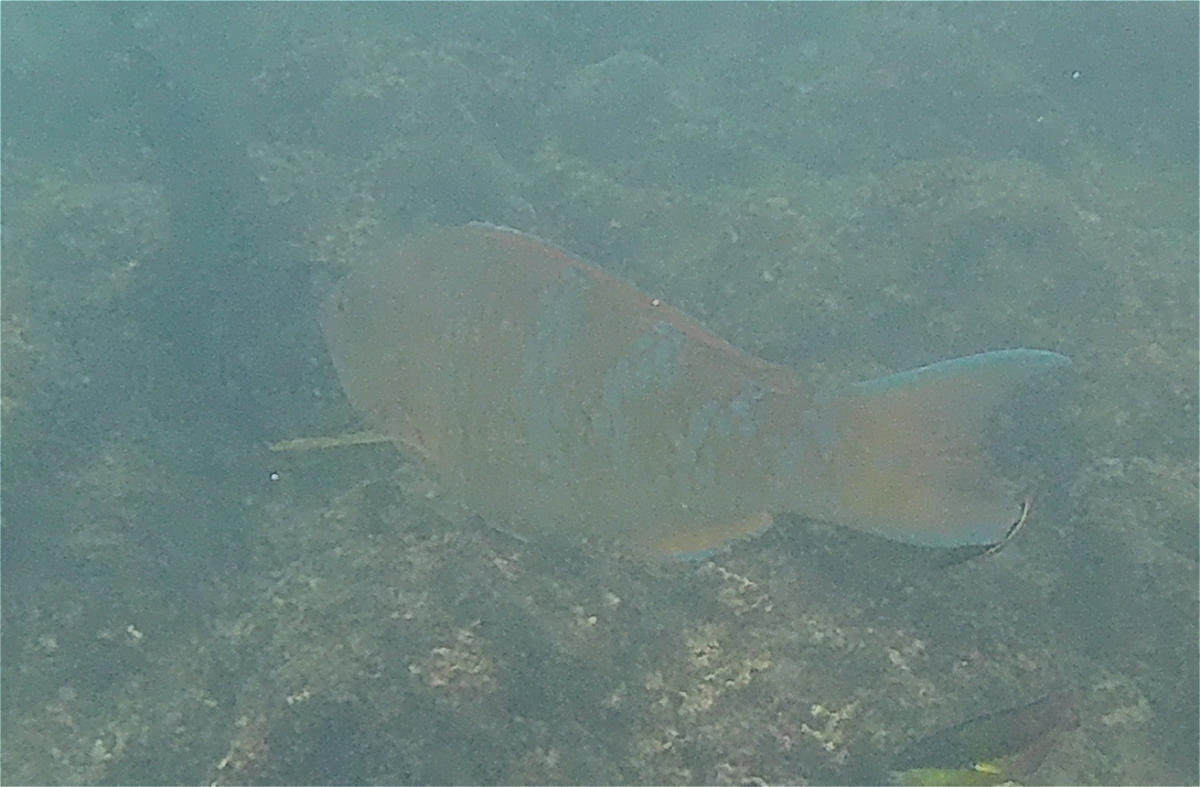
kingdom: Animalia
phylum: Chordata
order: Perciformes
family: Scaridae
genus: Scarus
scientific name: Scarus ghobban
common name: Blue-barred parrotfish
